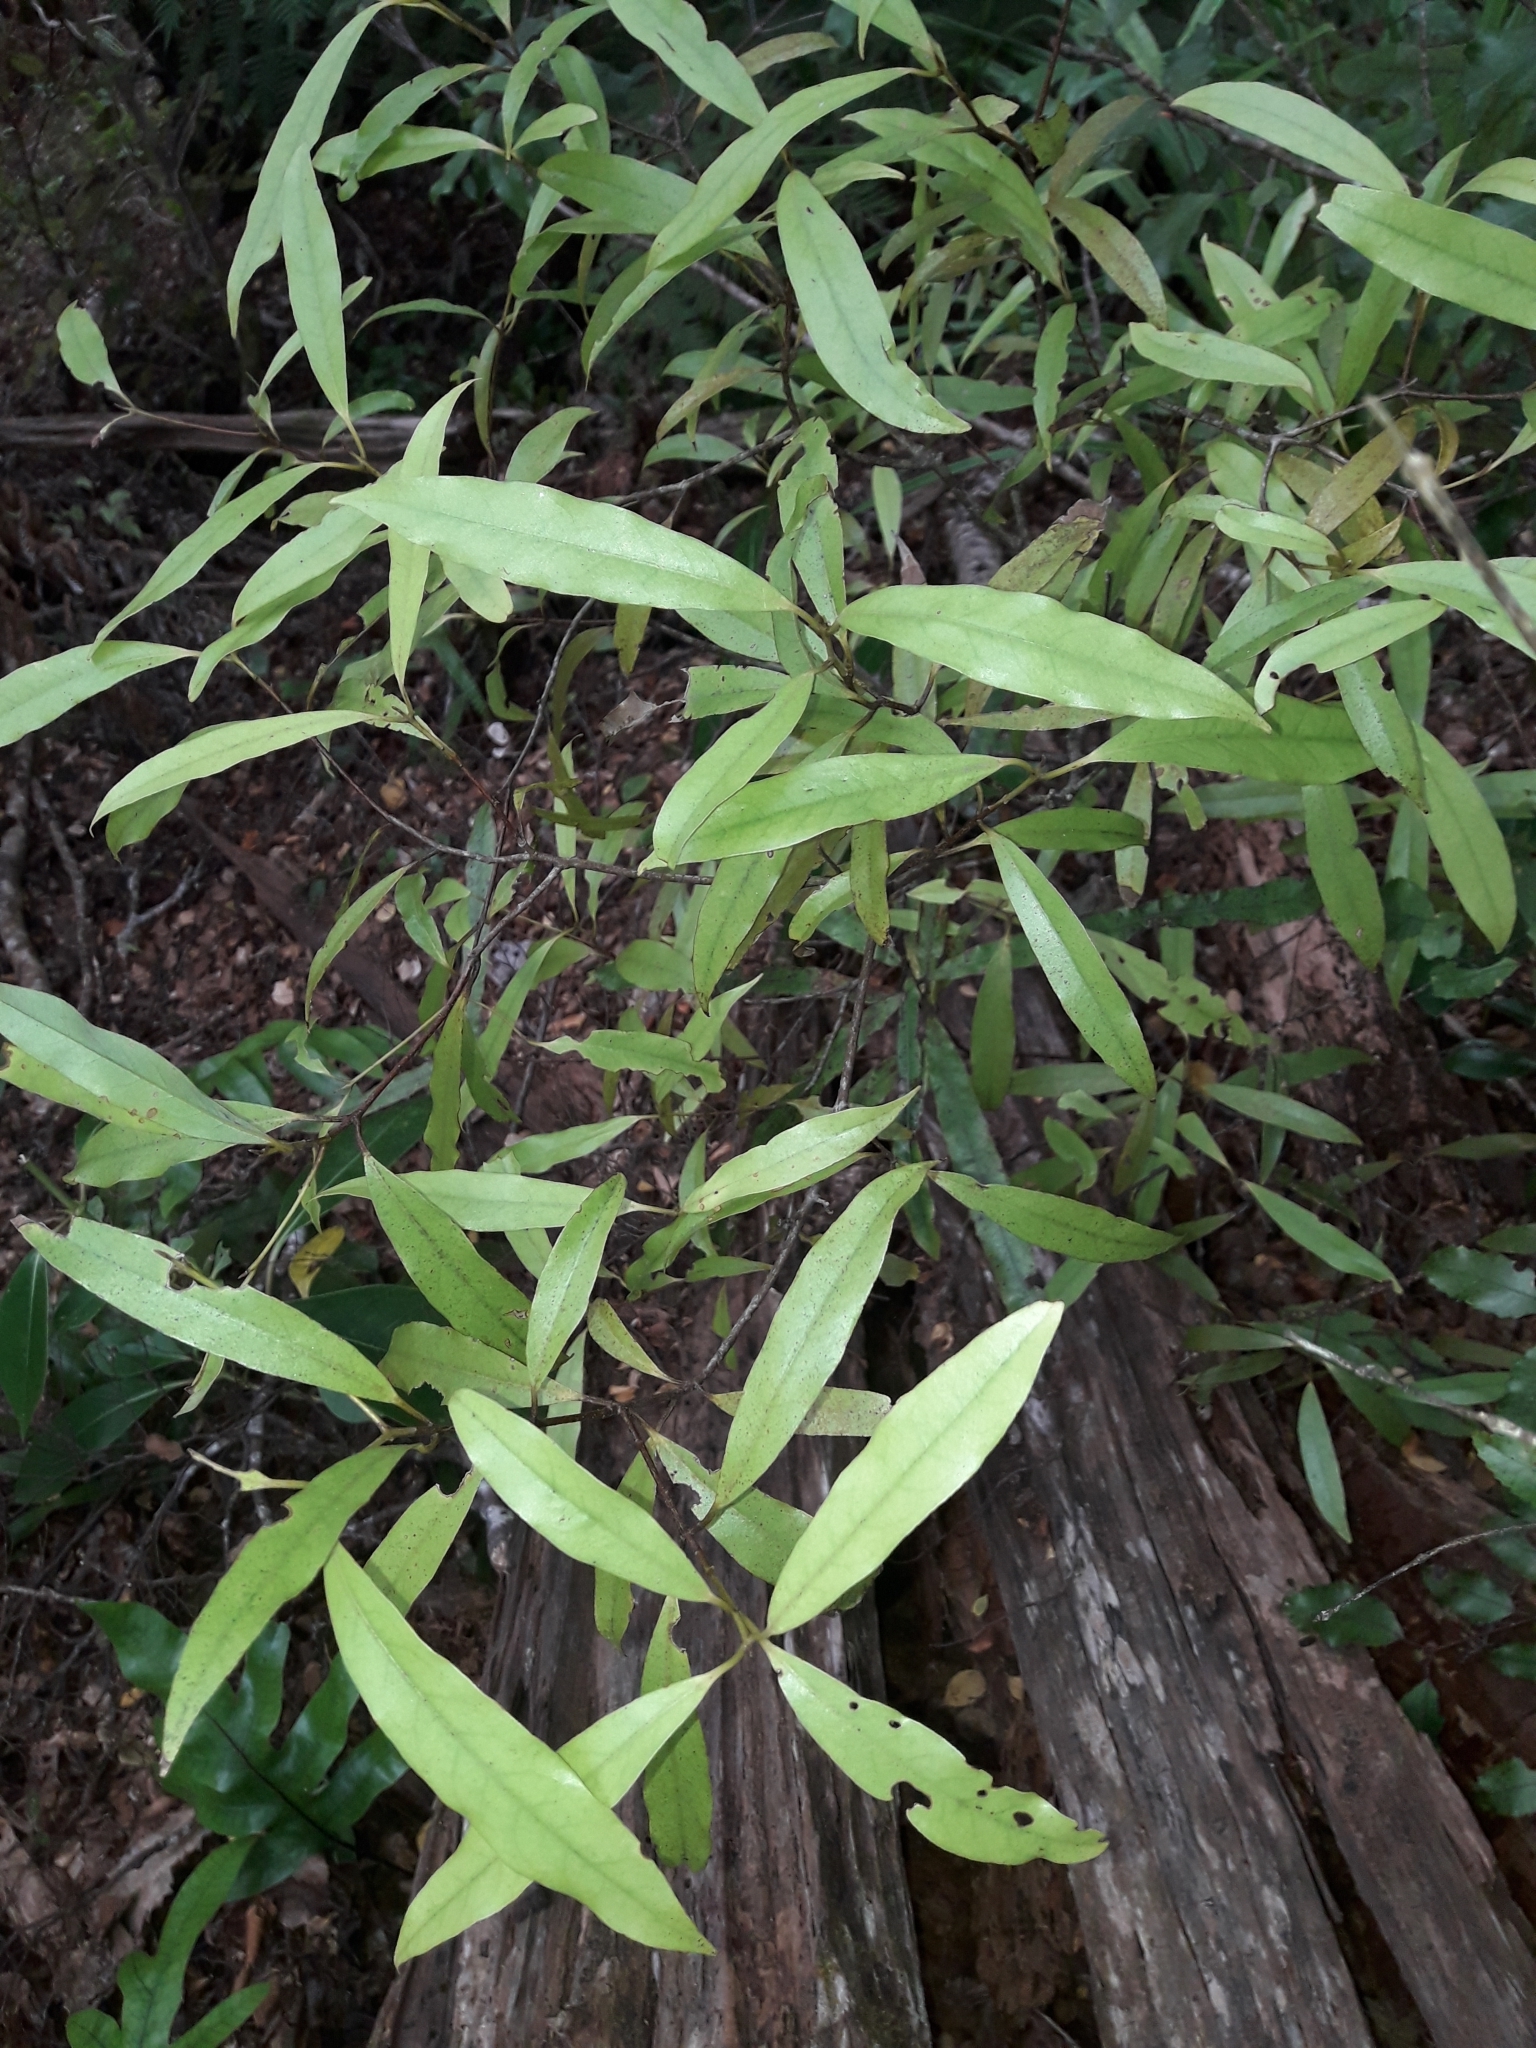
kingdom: Plantae
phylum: Tracheophyta
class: Magnoliopsida
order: Laurales
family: Lauraceae
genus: Beilschmiedia
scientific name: Beilschmiedia tawa
